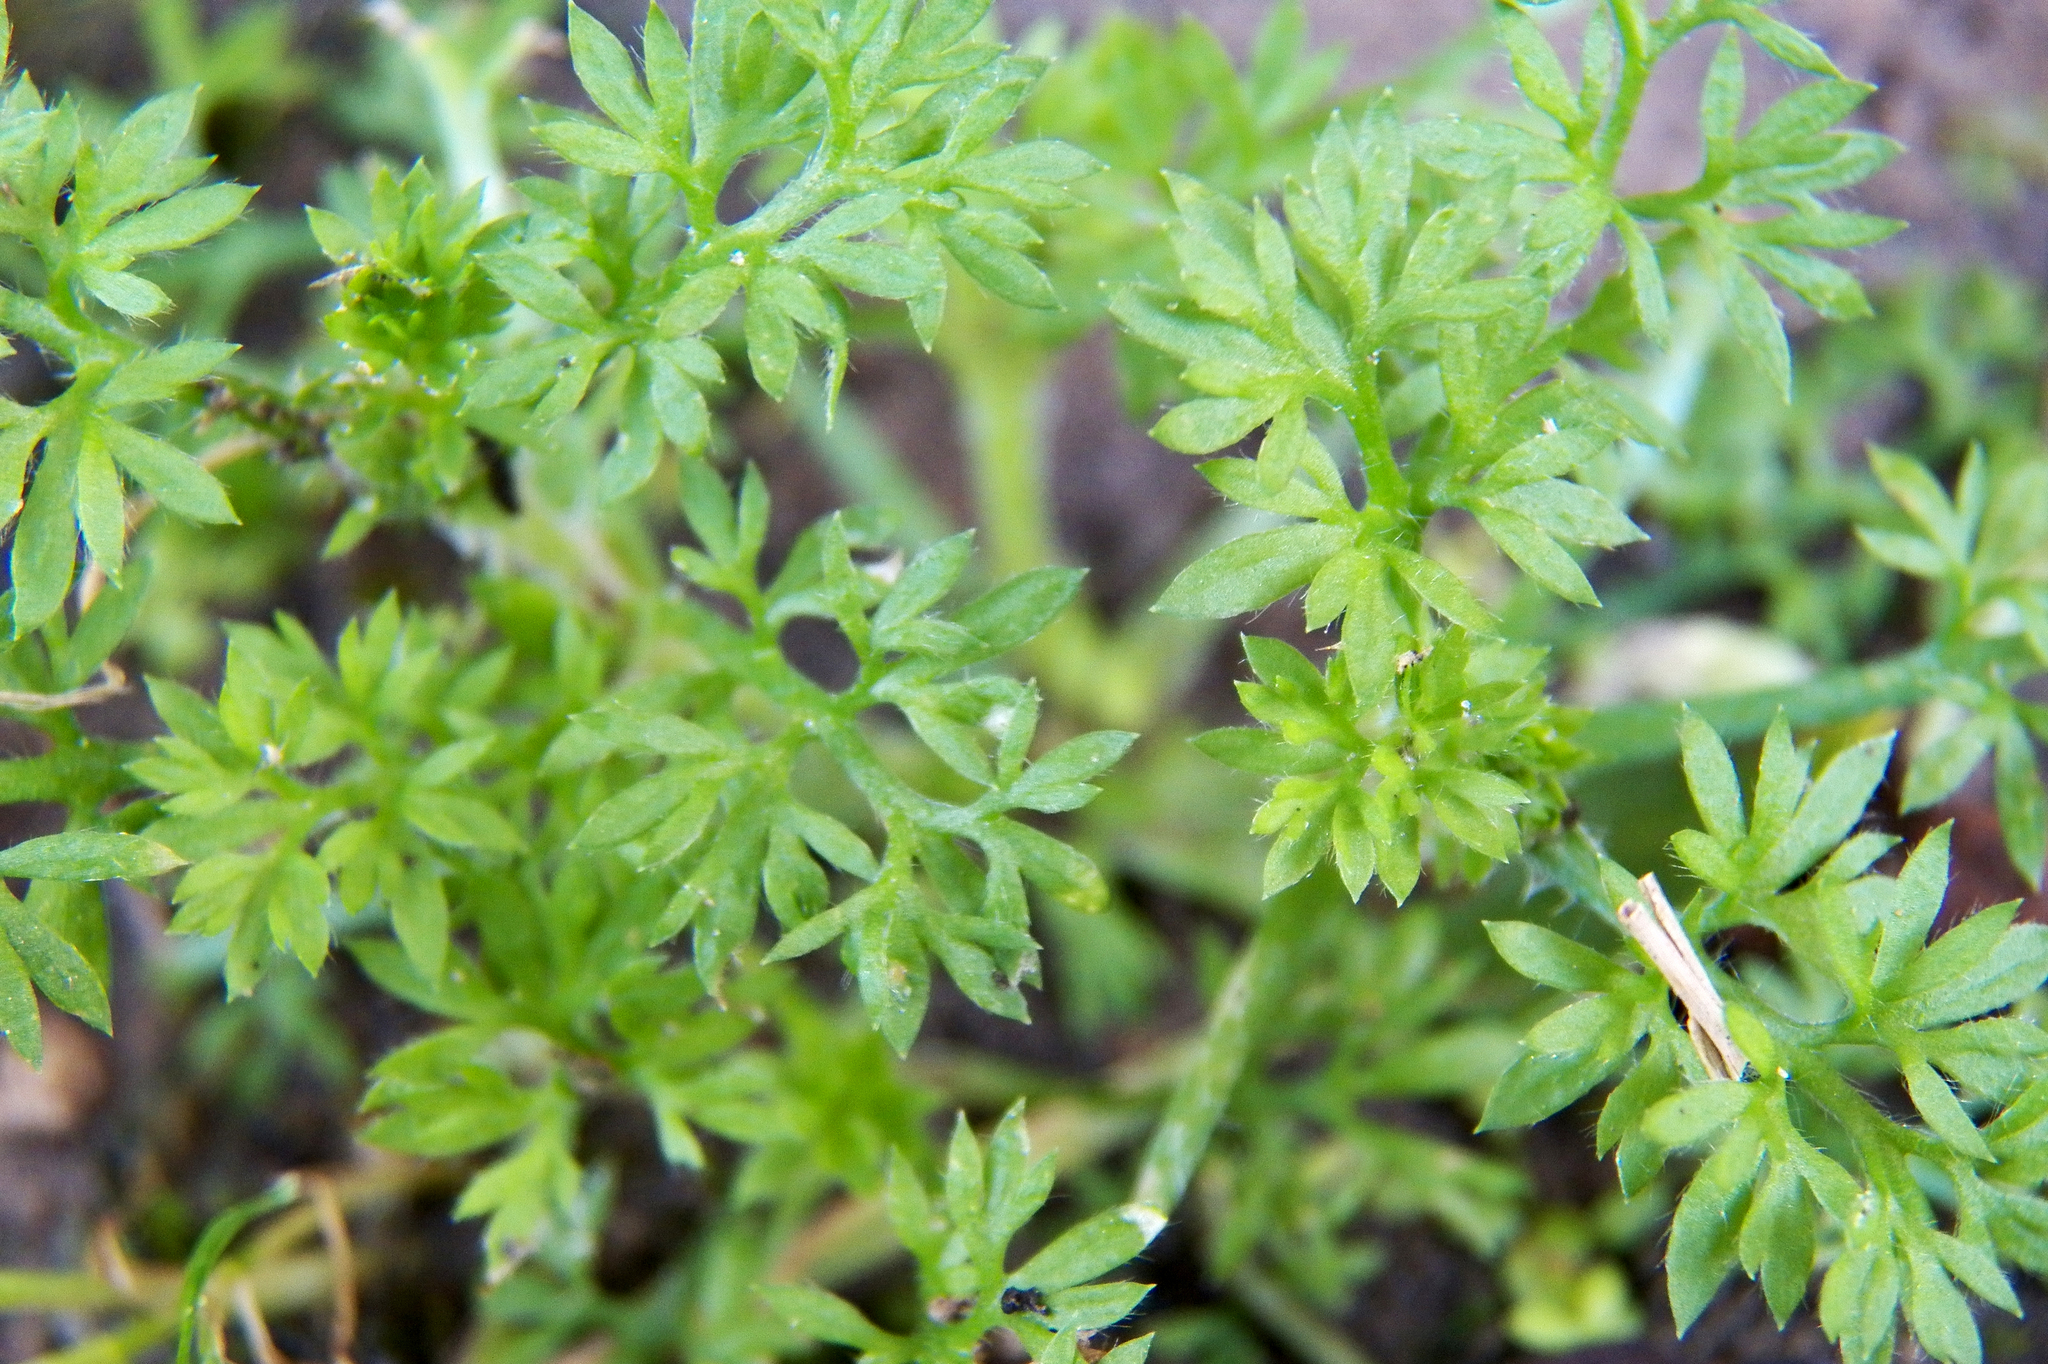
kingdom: Plantae
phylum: Tracheophyta
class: Magnoliopsida
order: Asterales
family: Asteraceae
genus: Soliva
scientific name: Soliva sessilis
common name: Field burrweed
